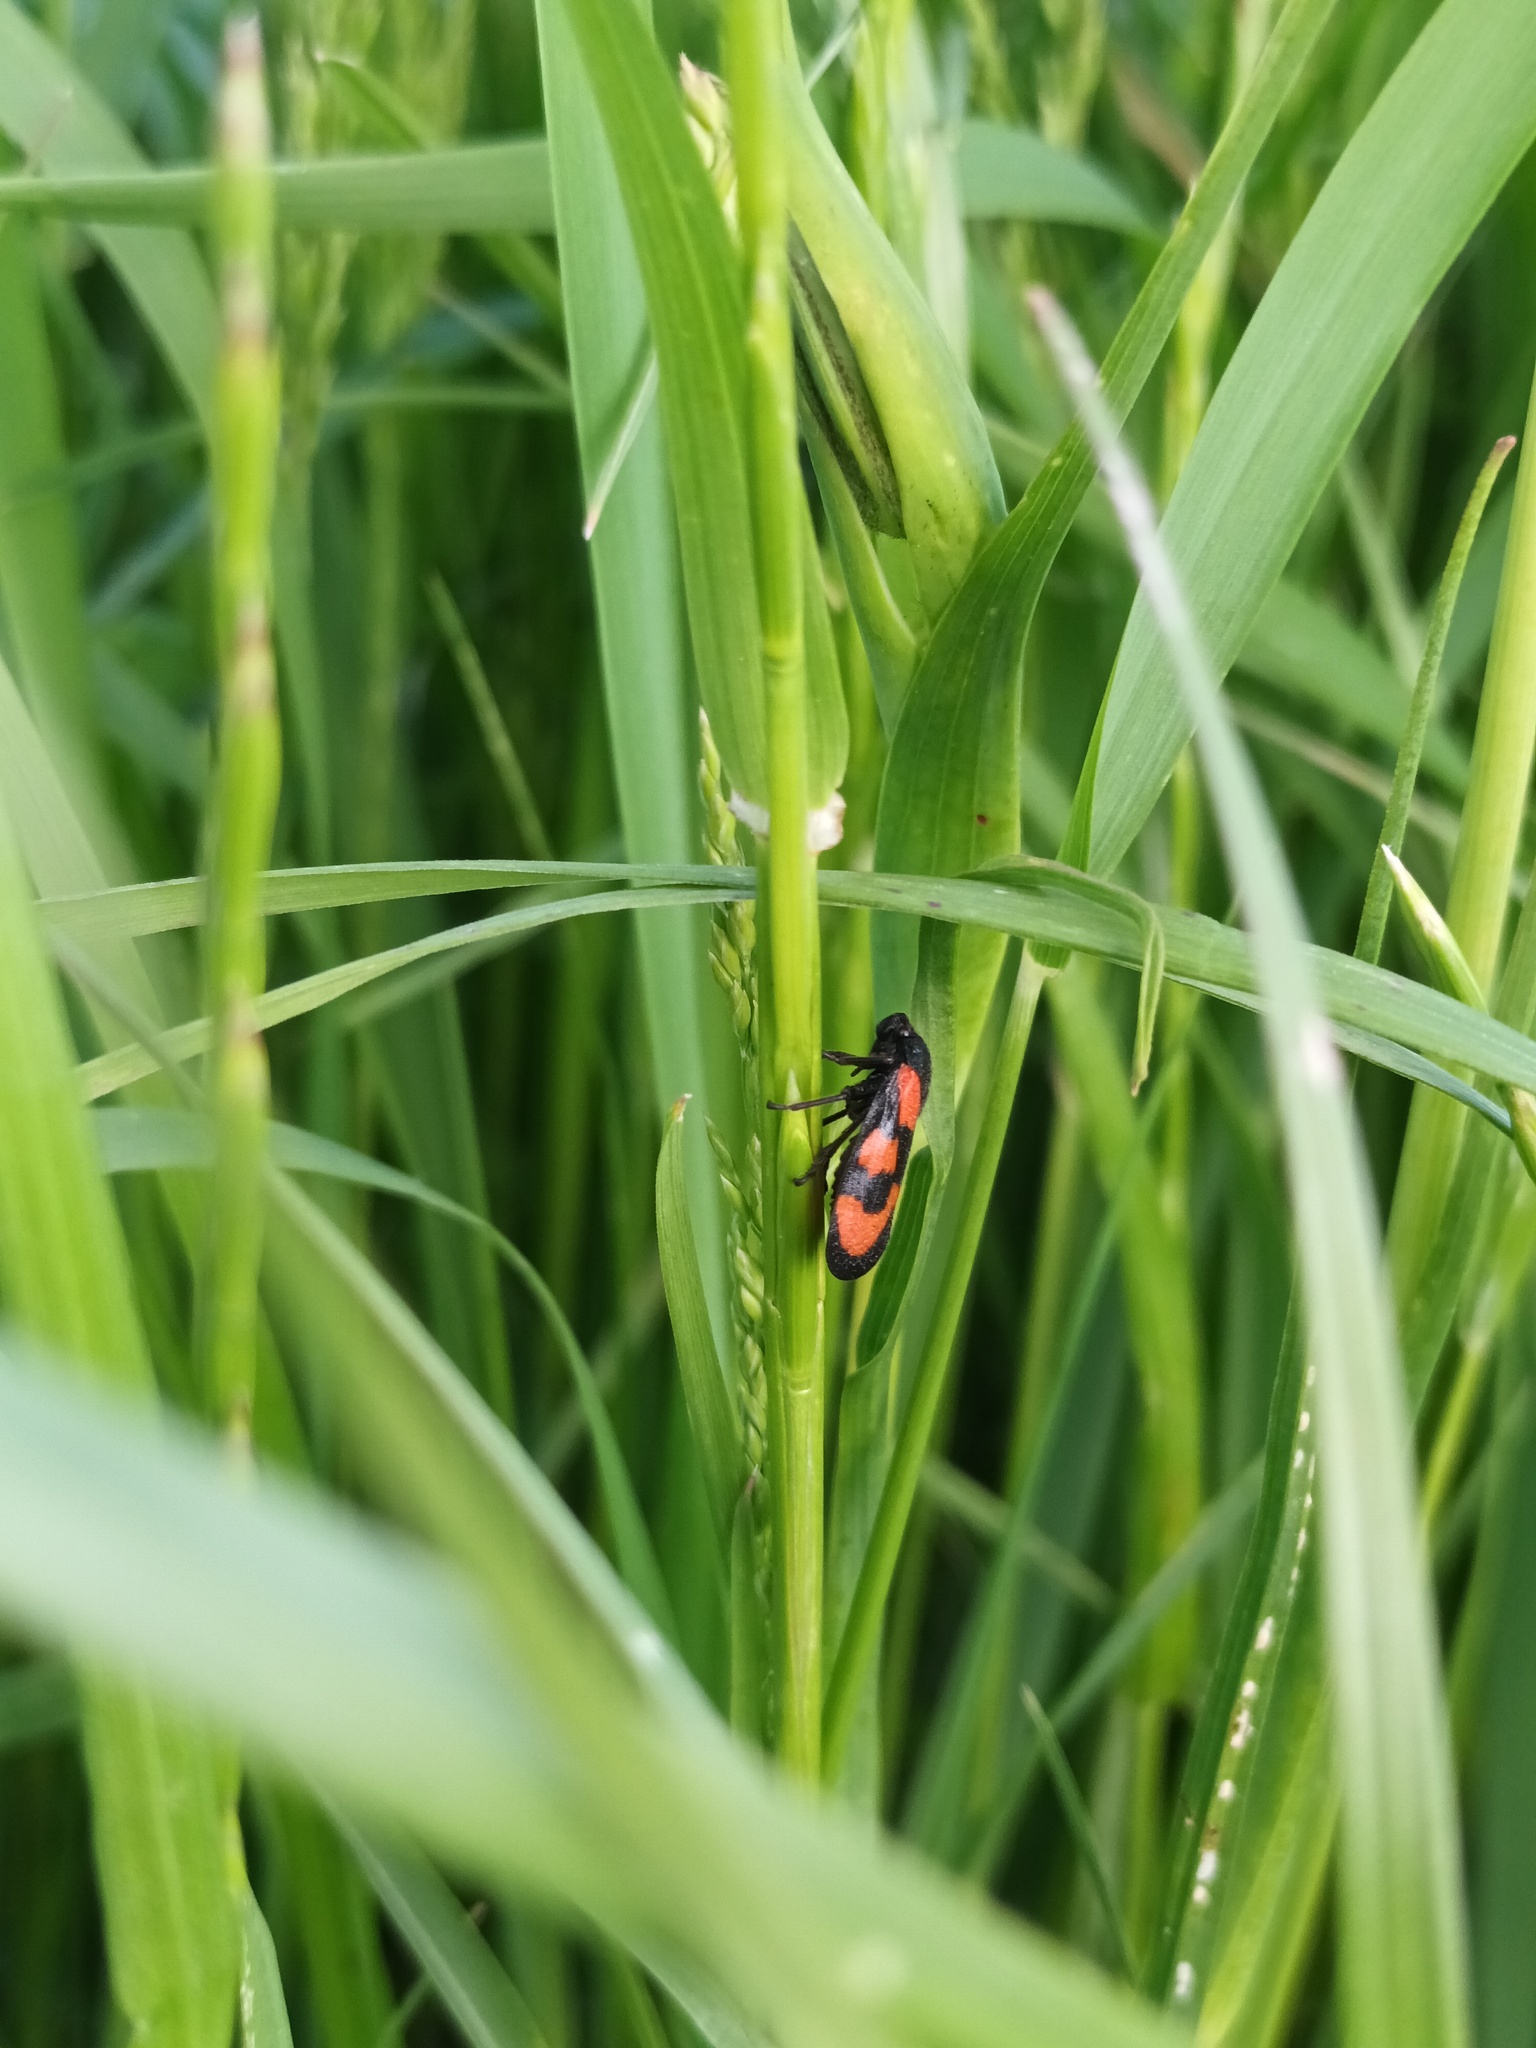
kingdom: Animalia
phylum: Arthropoda
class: Insecta
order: Hemiptera
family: Cercopidae
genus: Cercopis
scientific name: Cercopis vulnerata
